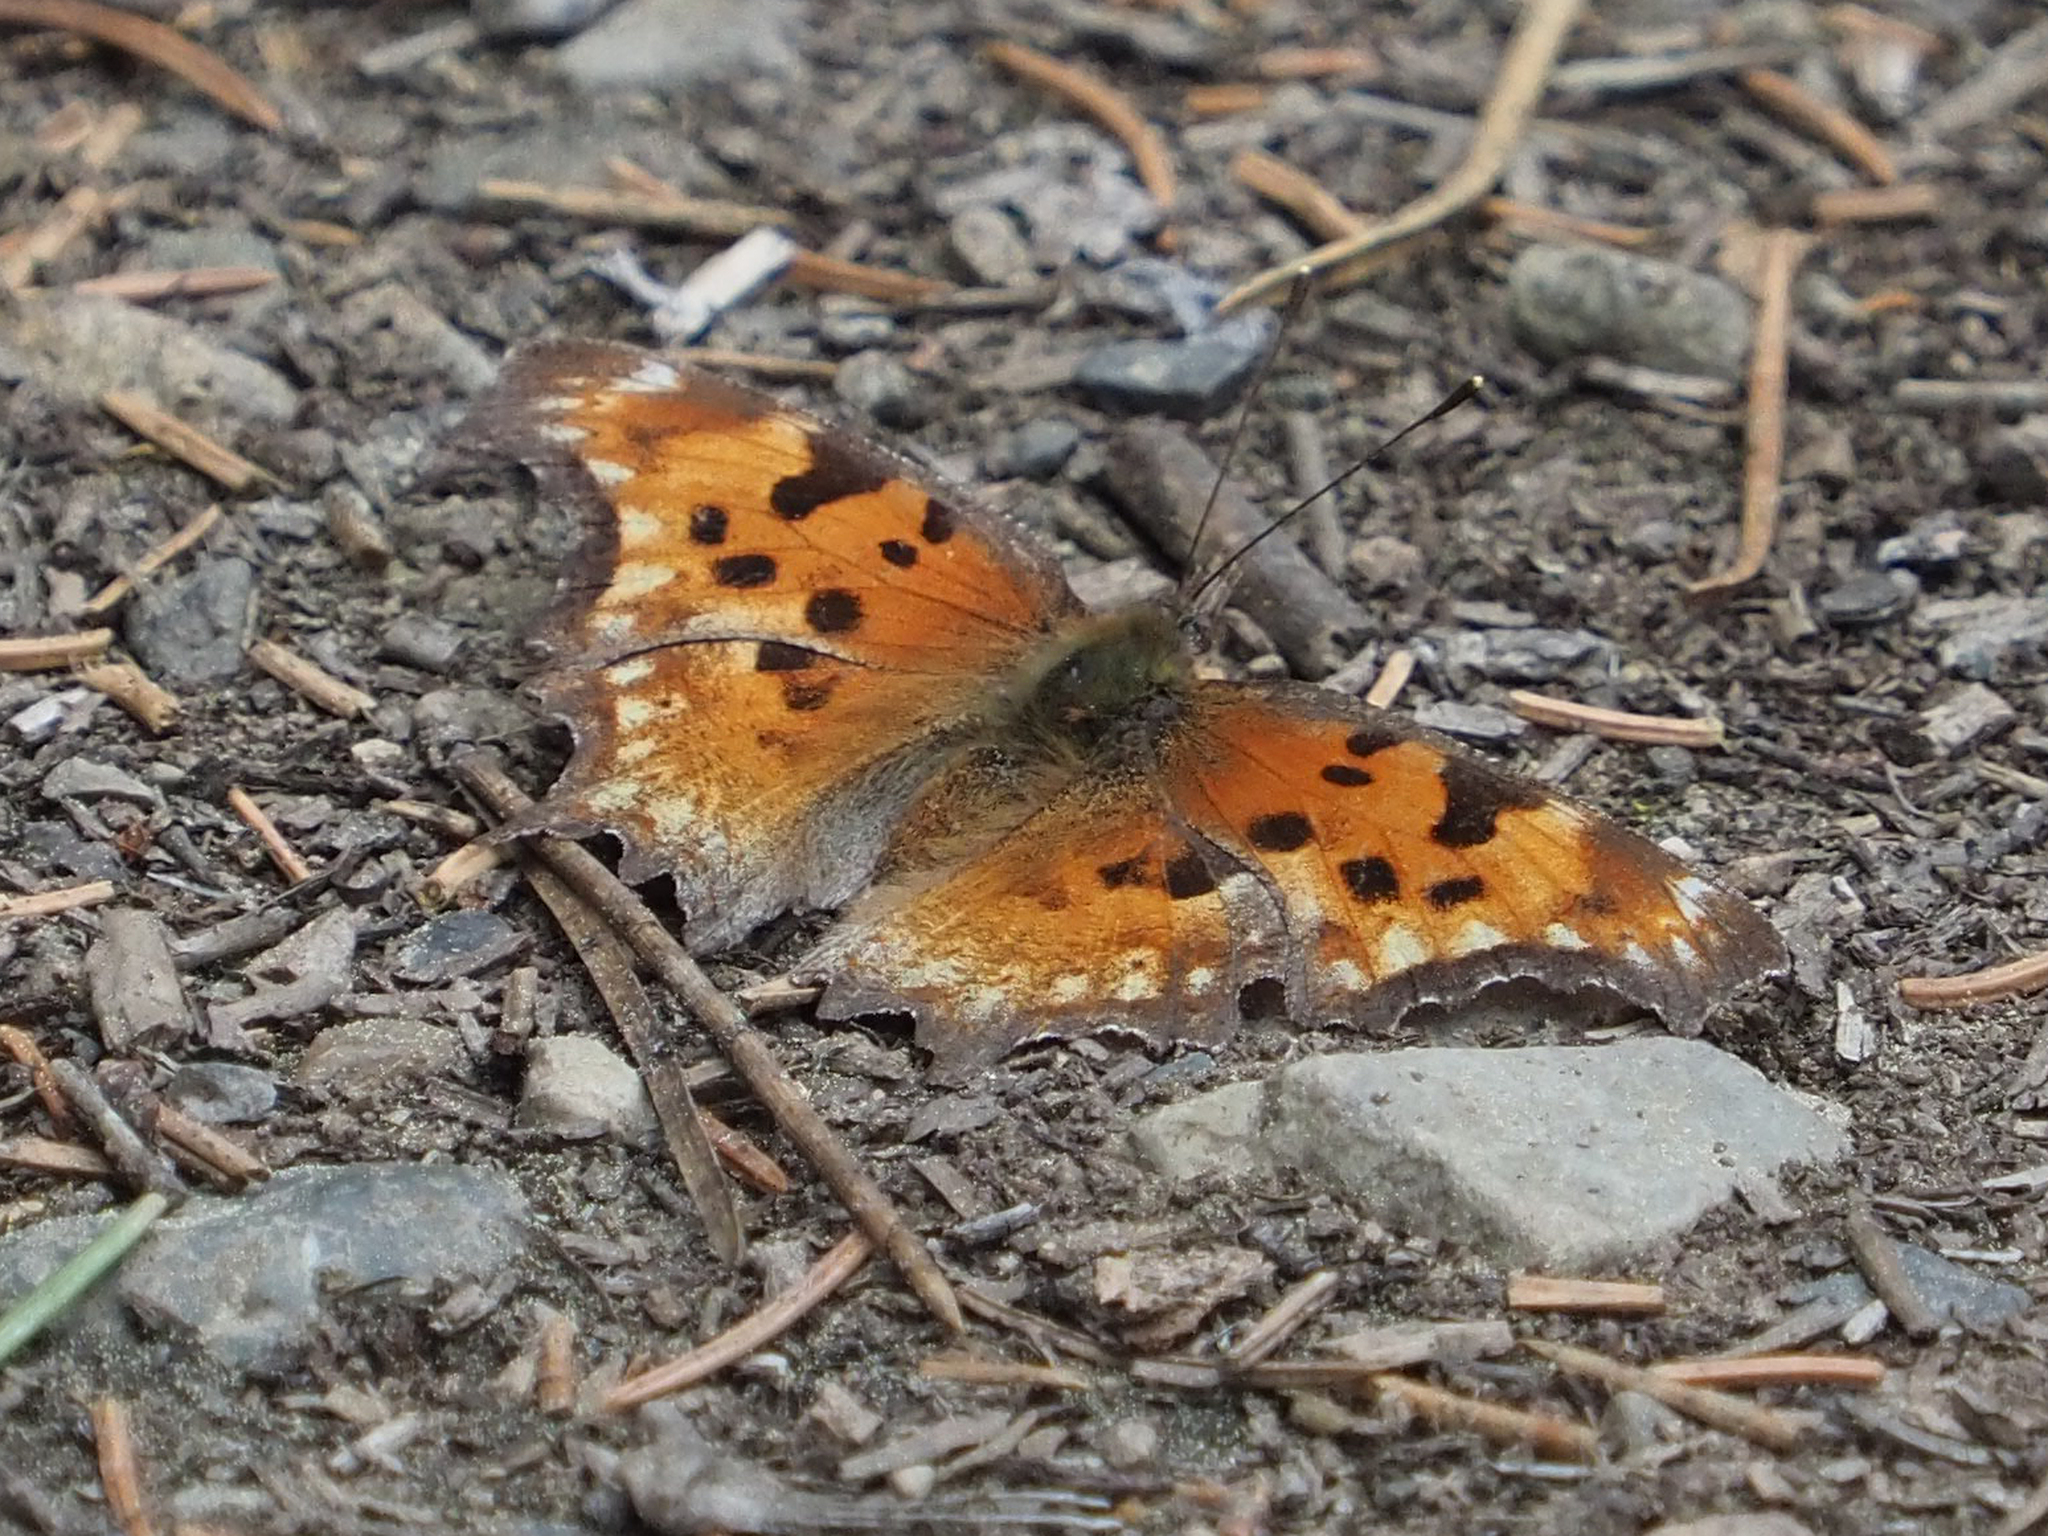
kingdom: Animalia
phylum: Arthropoda
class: Insecta
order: Lepidoptera
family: Nymphalidae
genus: Polygonia
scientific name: Polygonia gracilis
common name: Hoary comma
